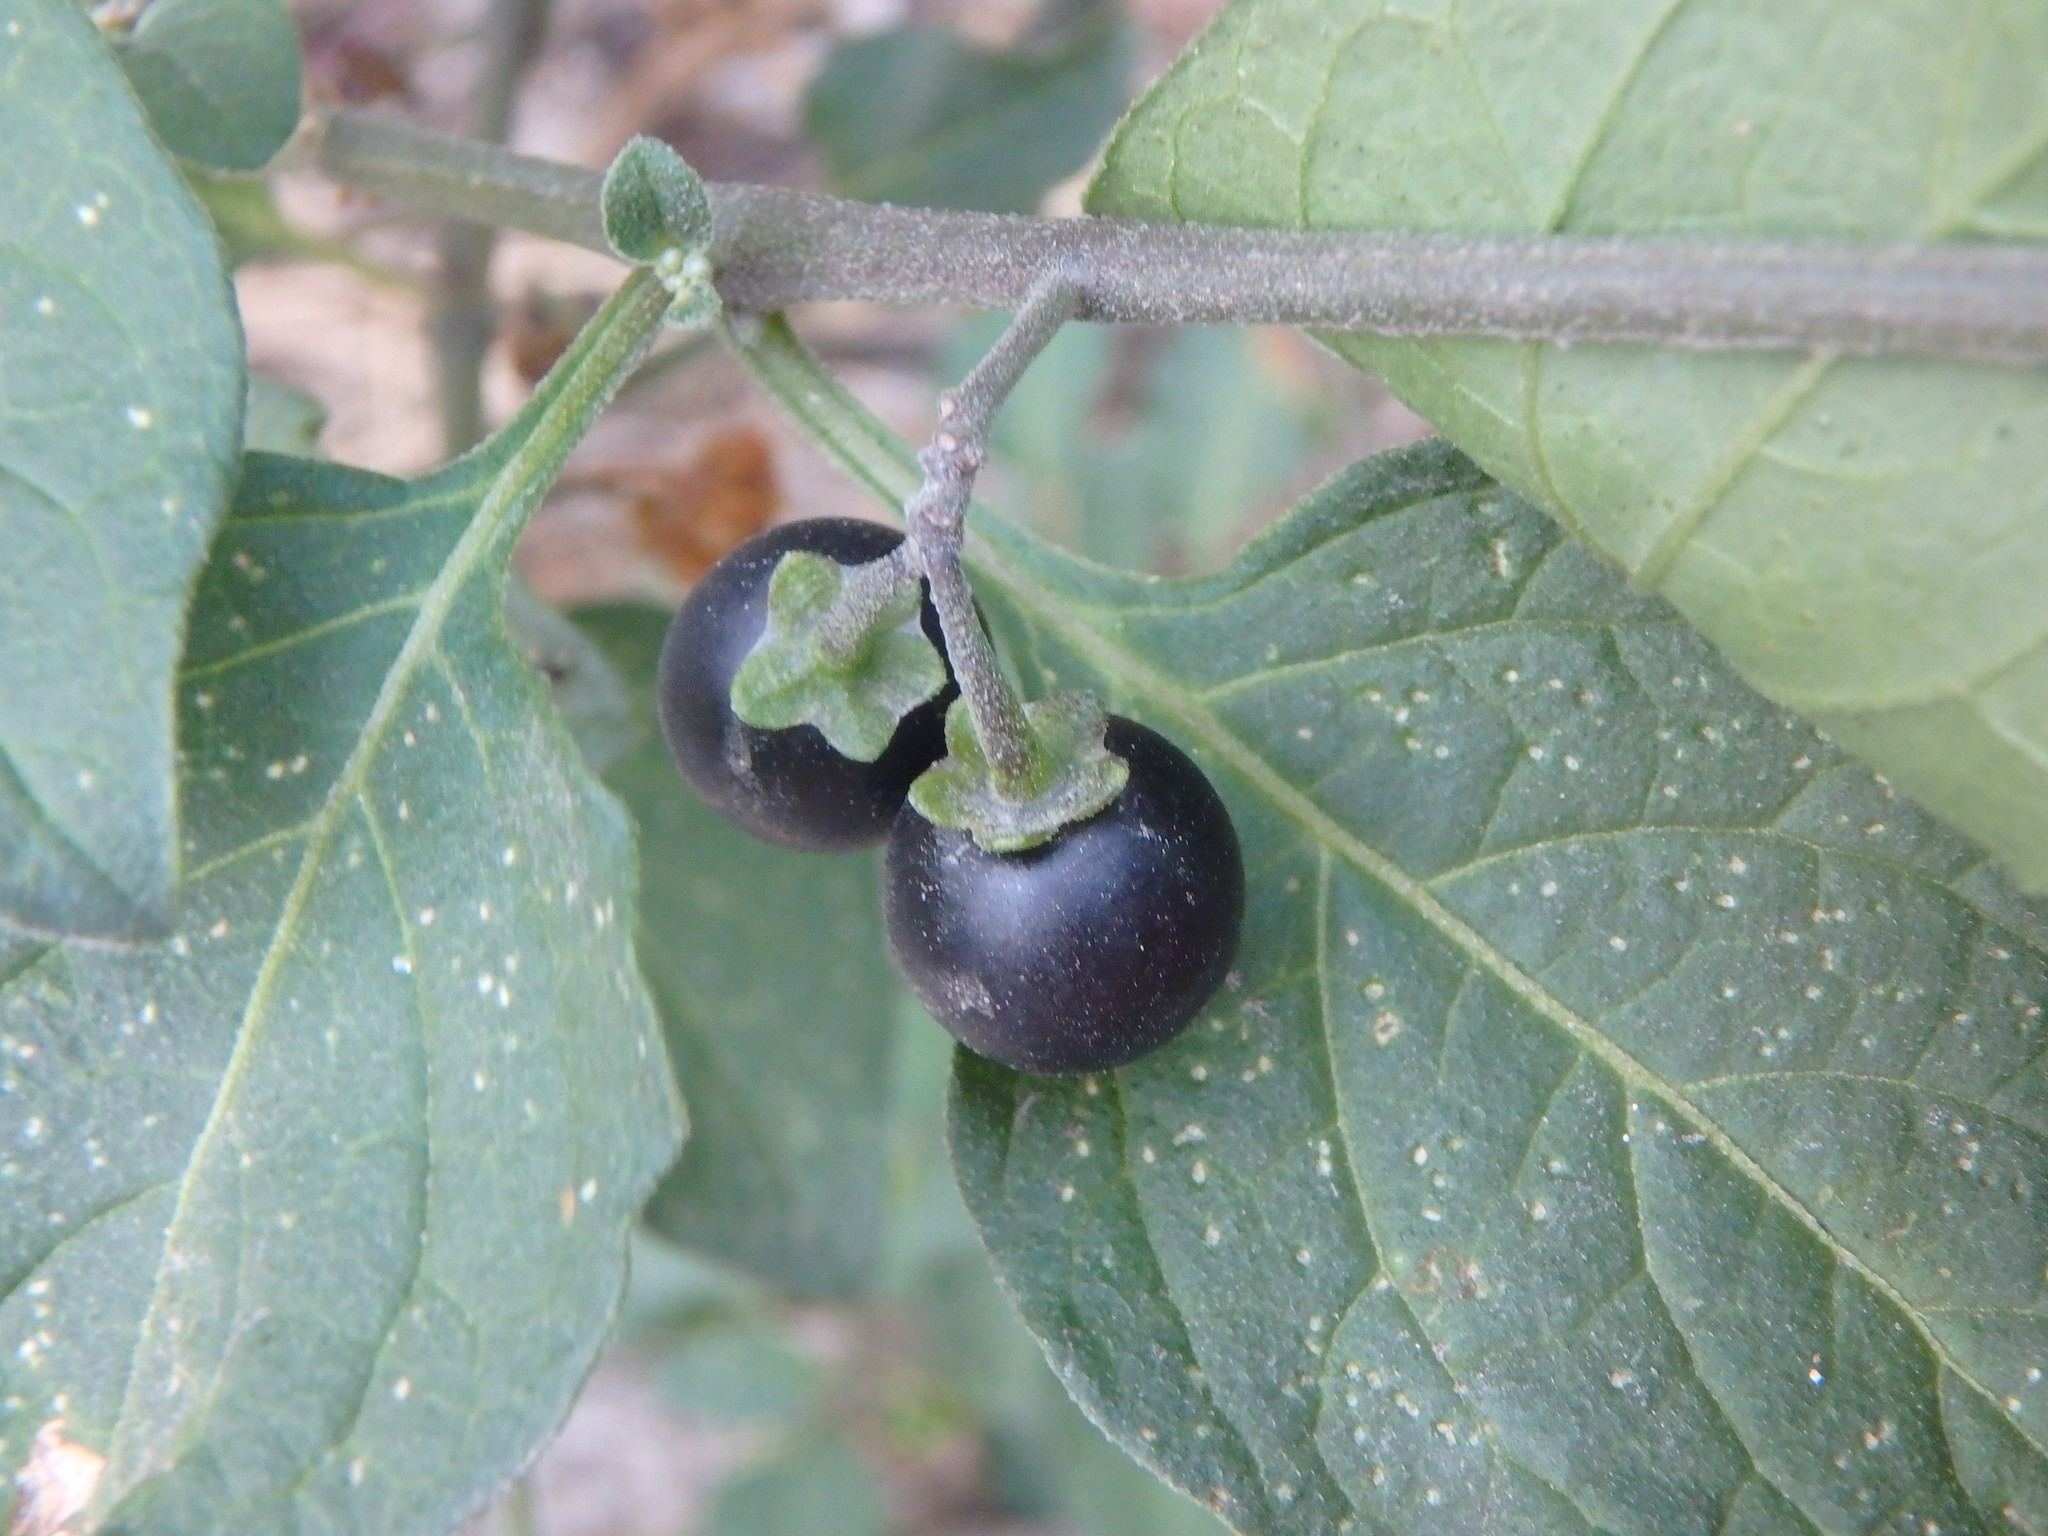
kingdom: Plantae
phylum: Tracheophyta
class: Magnoliopsida
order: Solanales
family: Solanaceae
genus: Solanum
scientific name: Solanum nigrum
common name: Black nightshade
